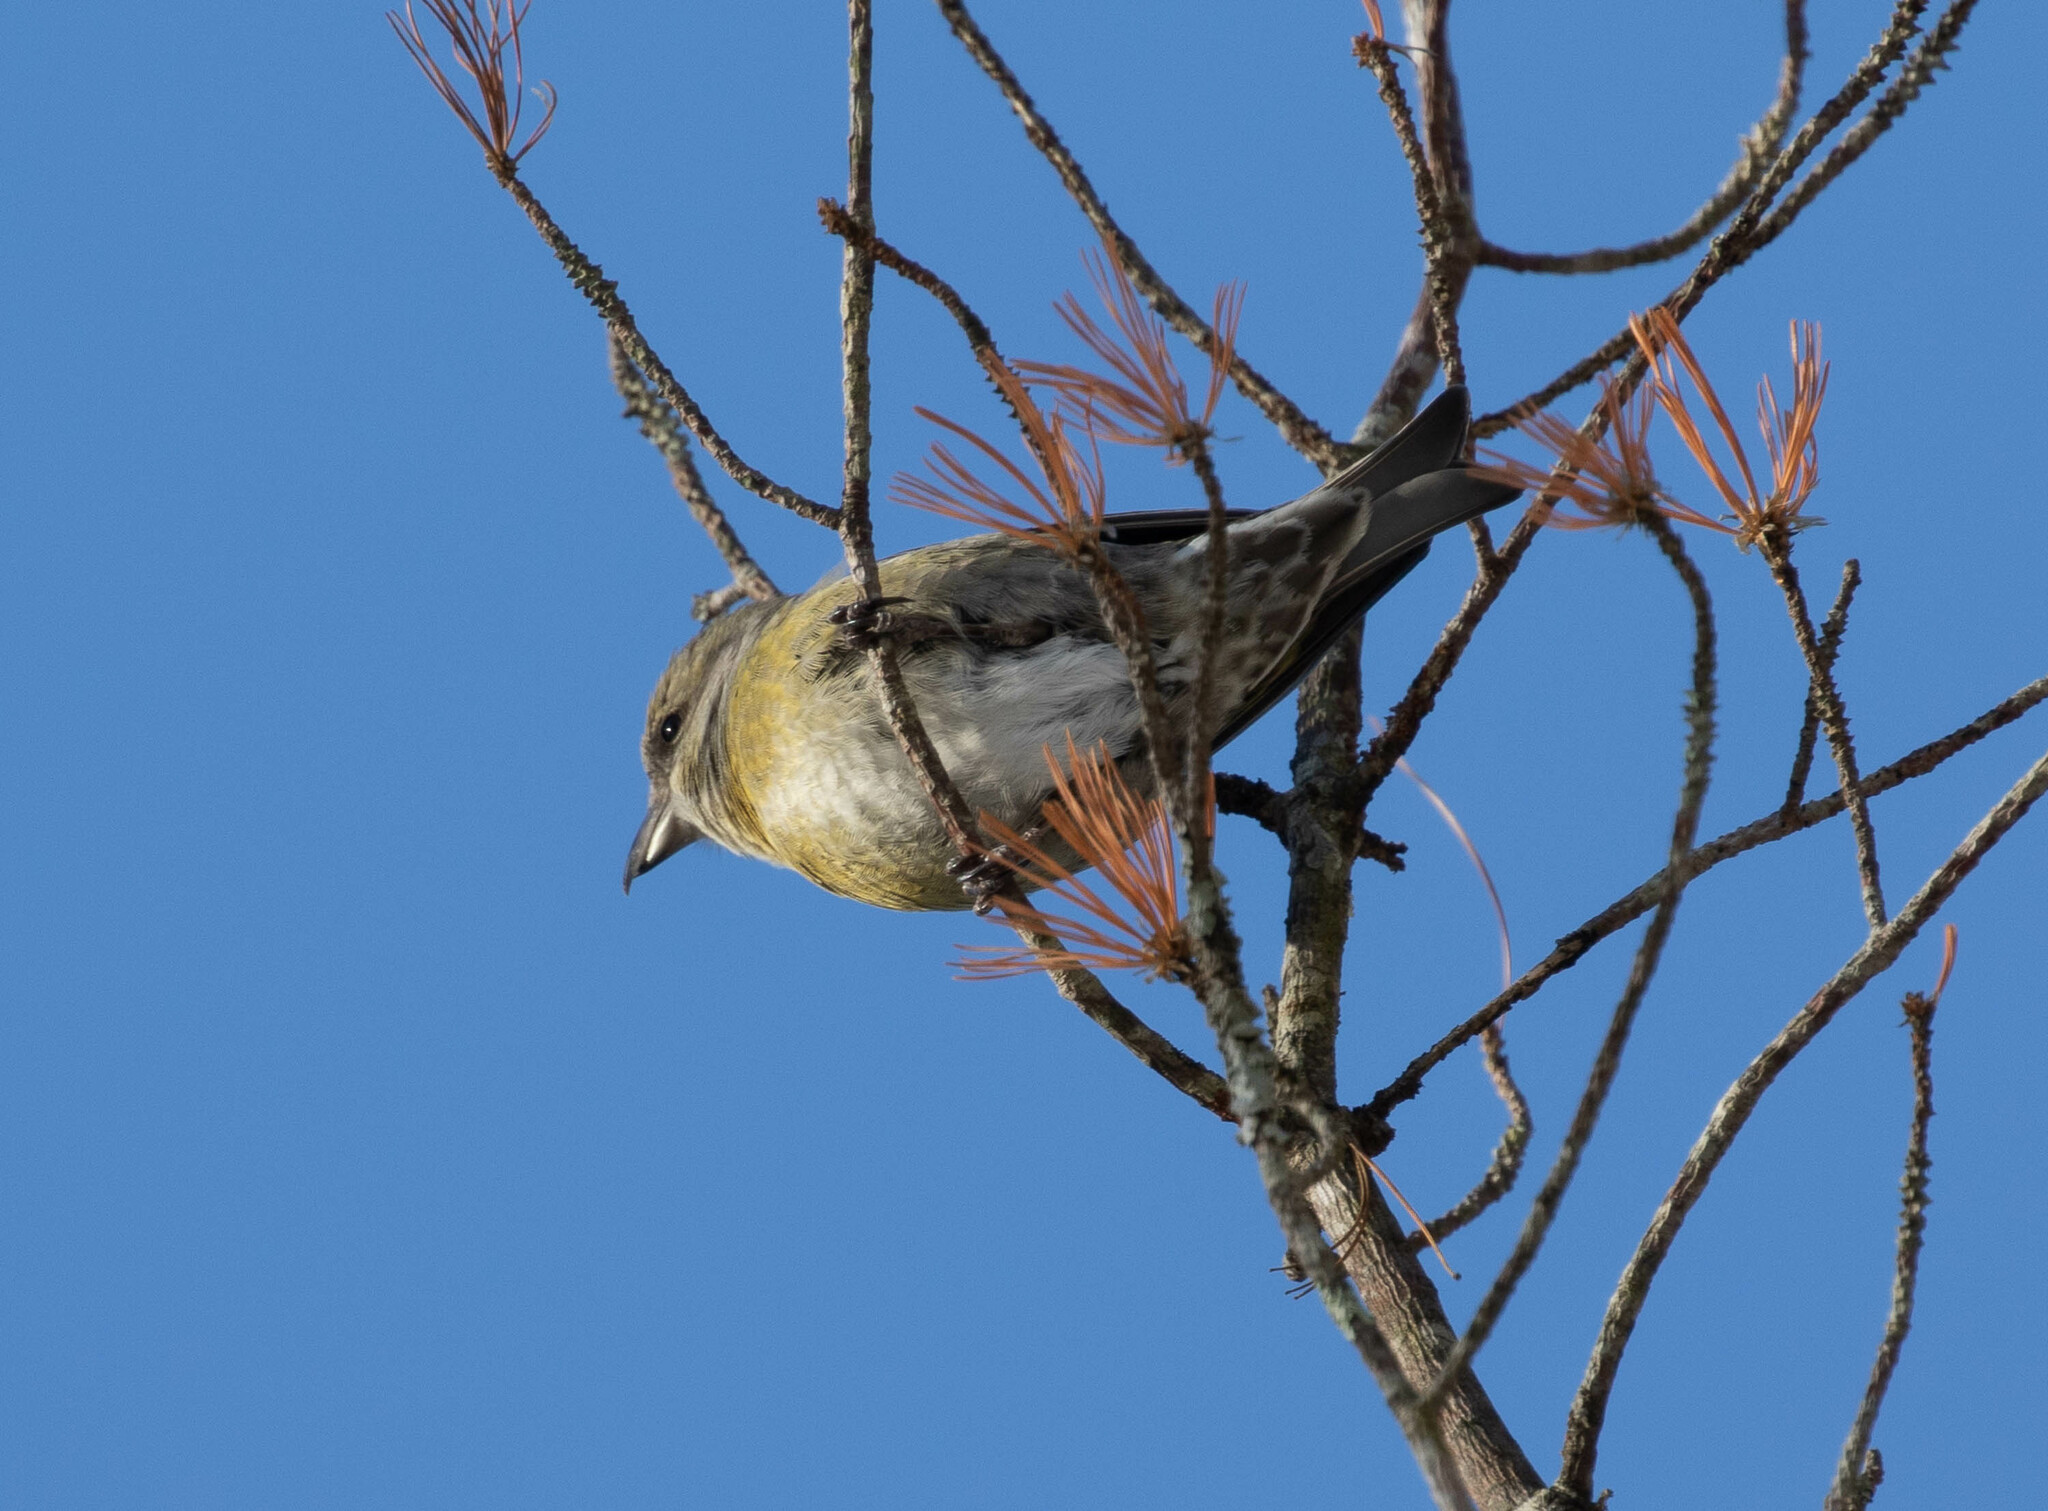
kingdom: Animalia
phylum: Chordata
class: Aves
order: Passeriformes
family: Fringillidae
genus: Loxia
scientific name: Loxia curvirostra
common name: Red crossbill
